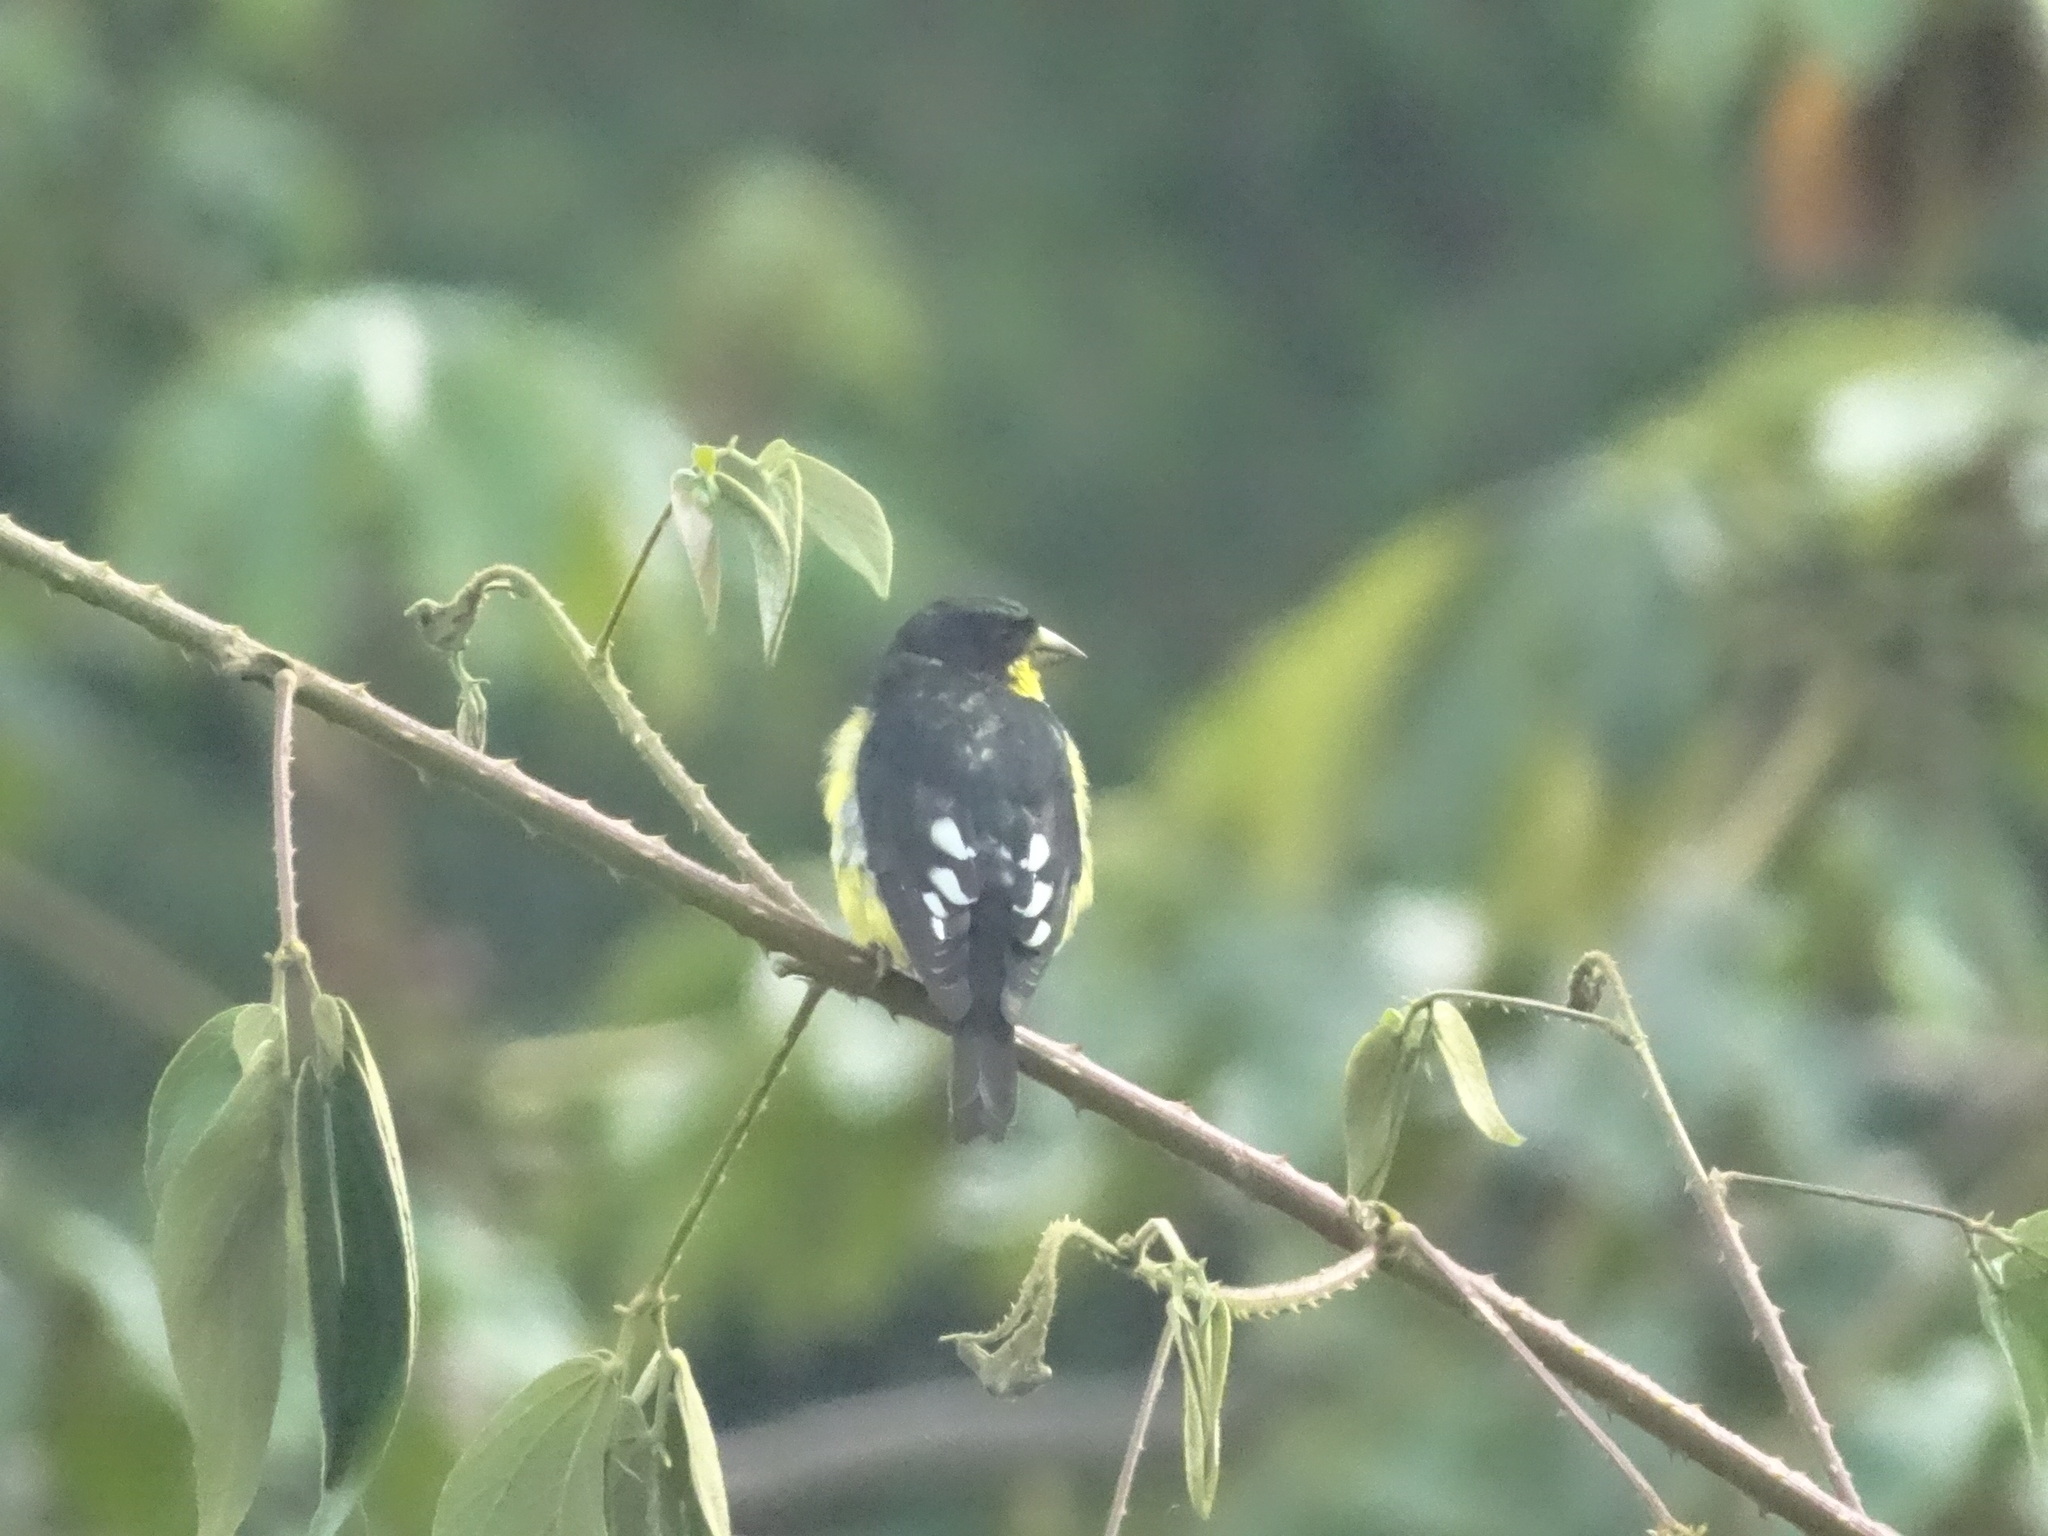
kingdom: Animalia
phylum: Chordata
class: Aves
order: Passeriformes
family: Fringillidae
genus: Spinus
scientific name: Spinus psaltria
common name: Lesser goldfinch
